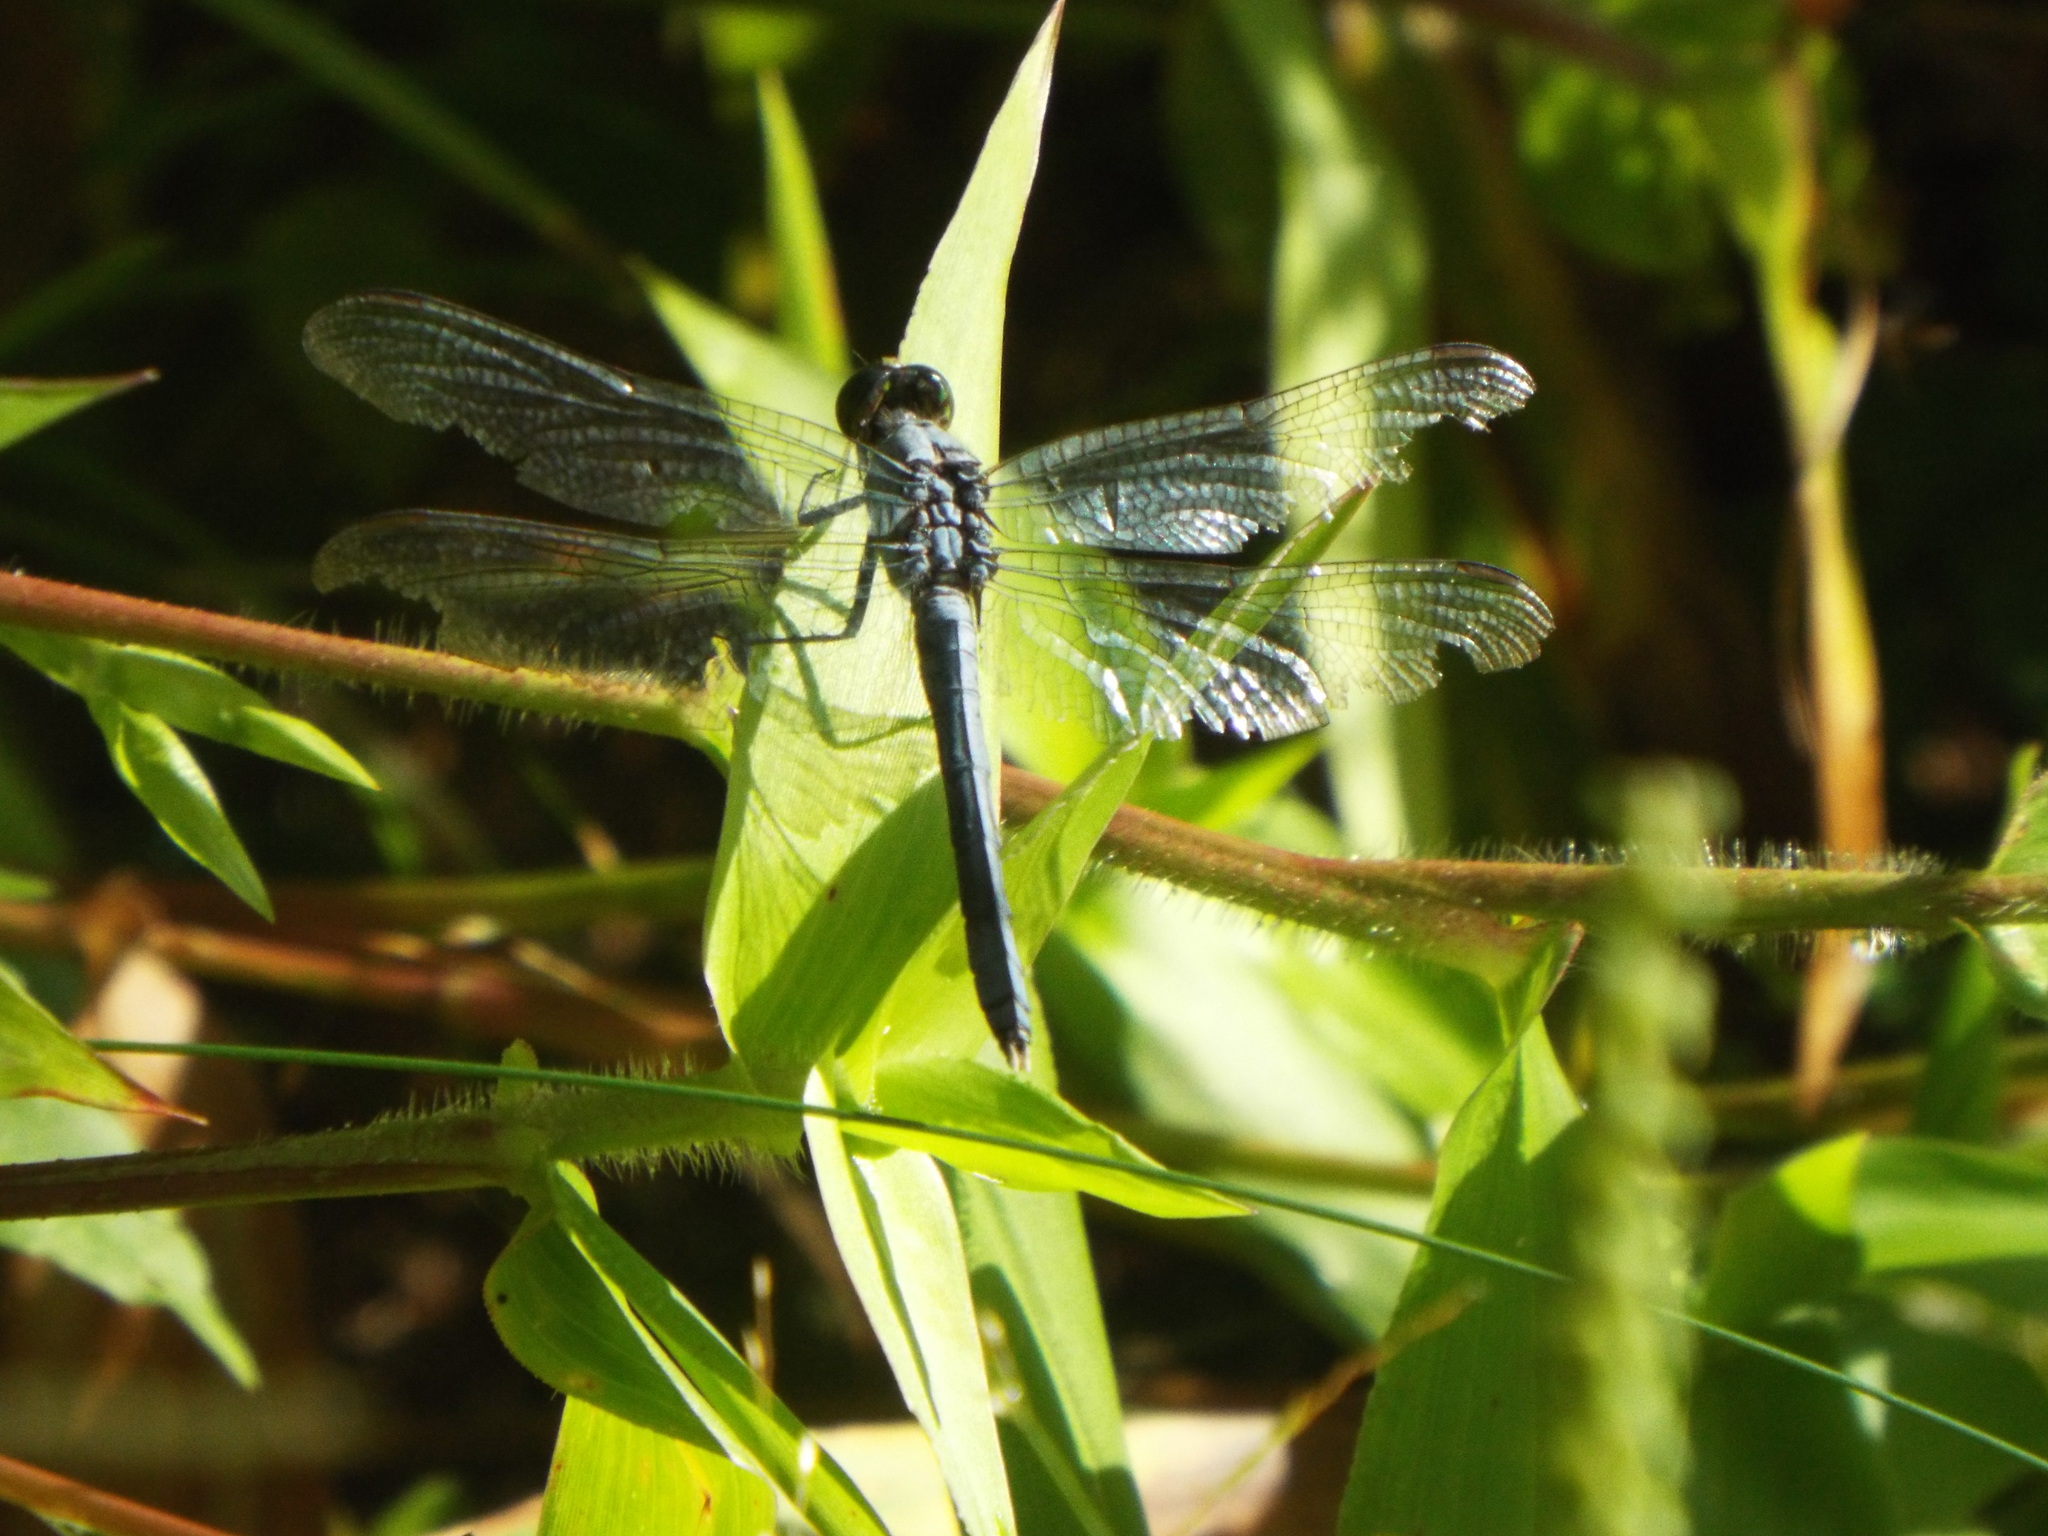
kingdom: Animalia
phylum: Arthropoda
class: Insecta
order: Odonata
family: Libellulidae
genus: Libellula
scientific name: Libellula incesta
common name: Slaty skimmer
